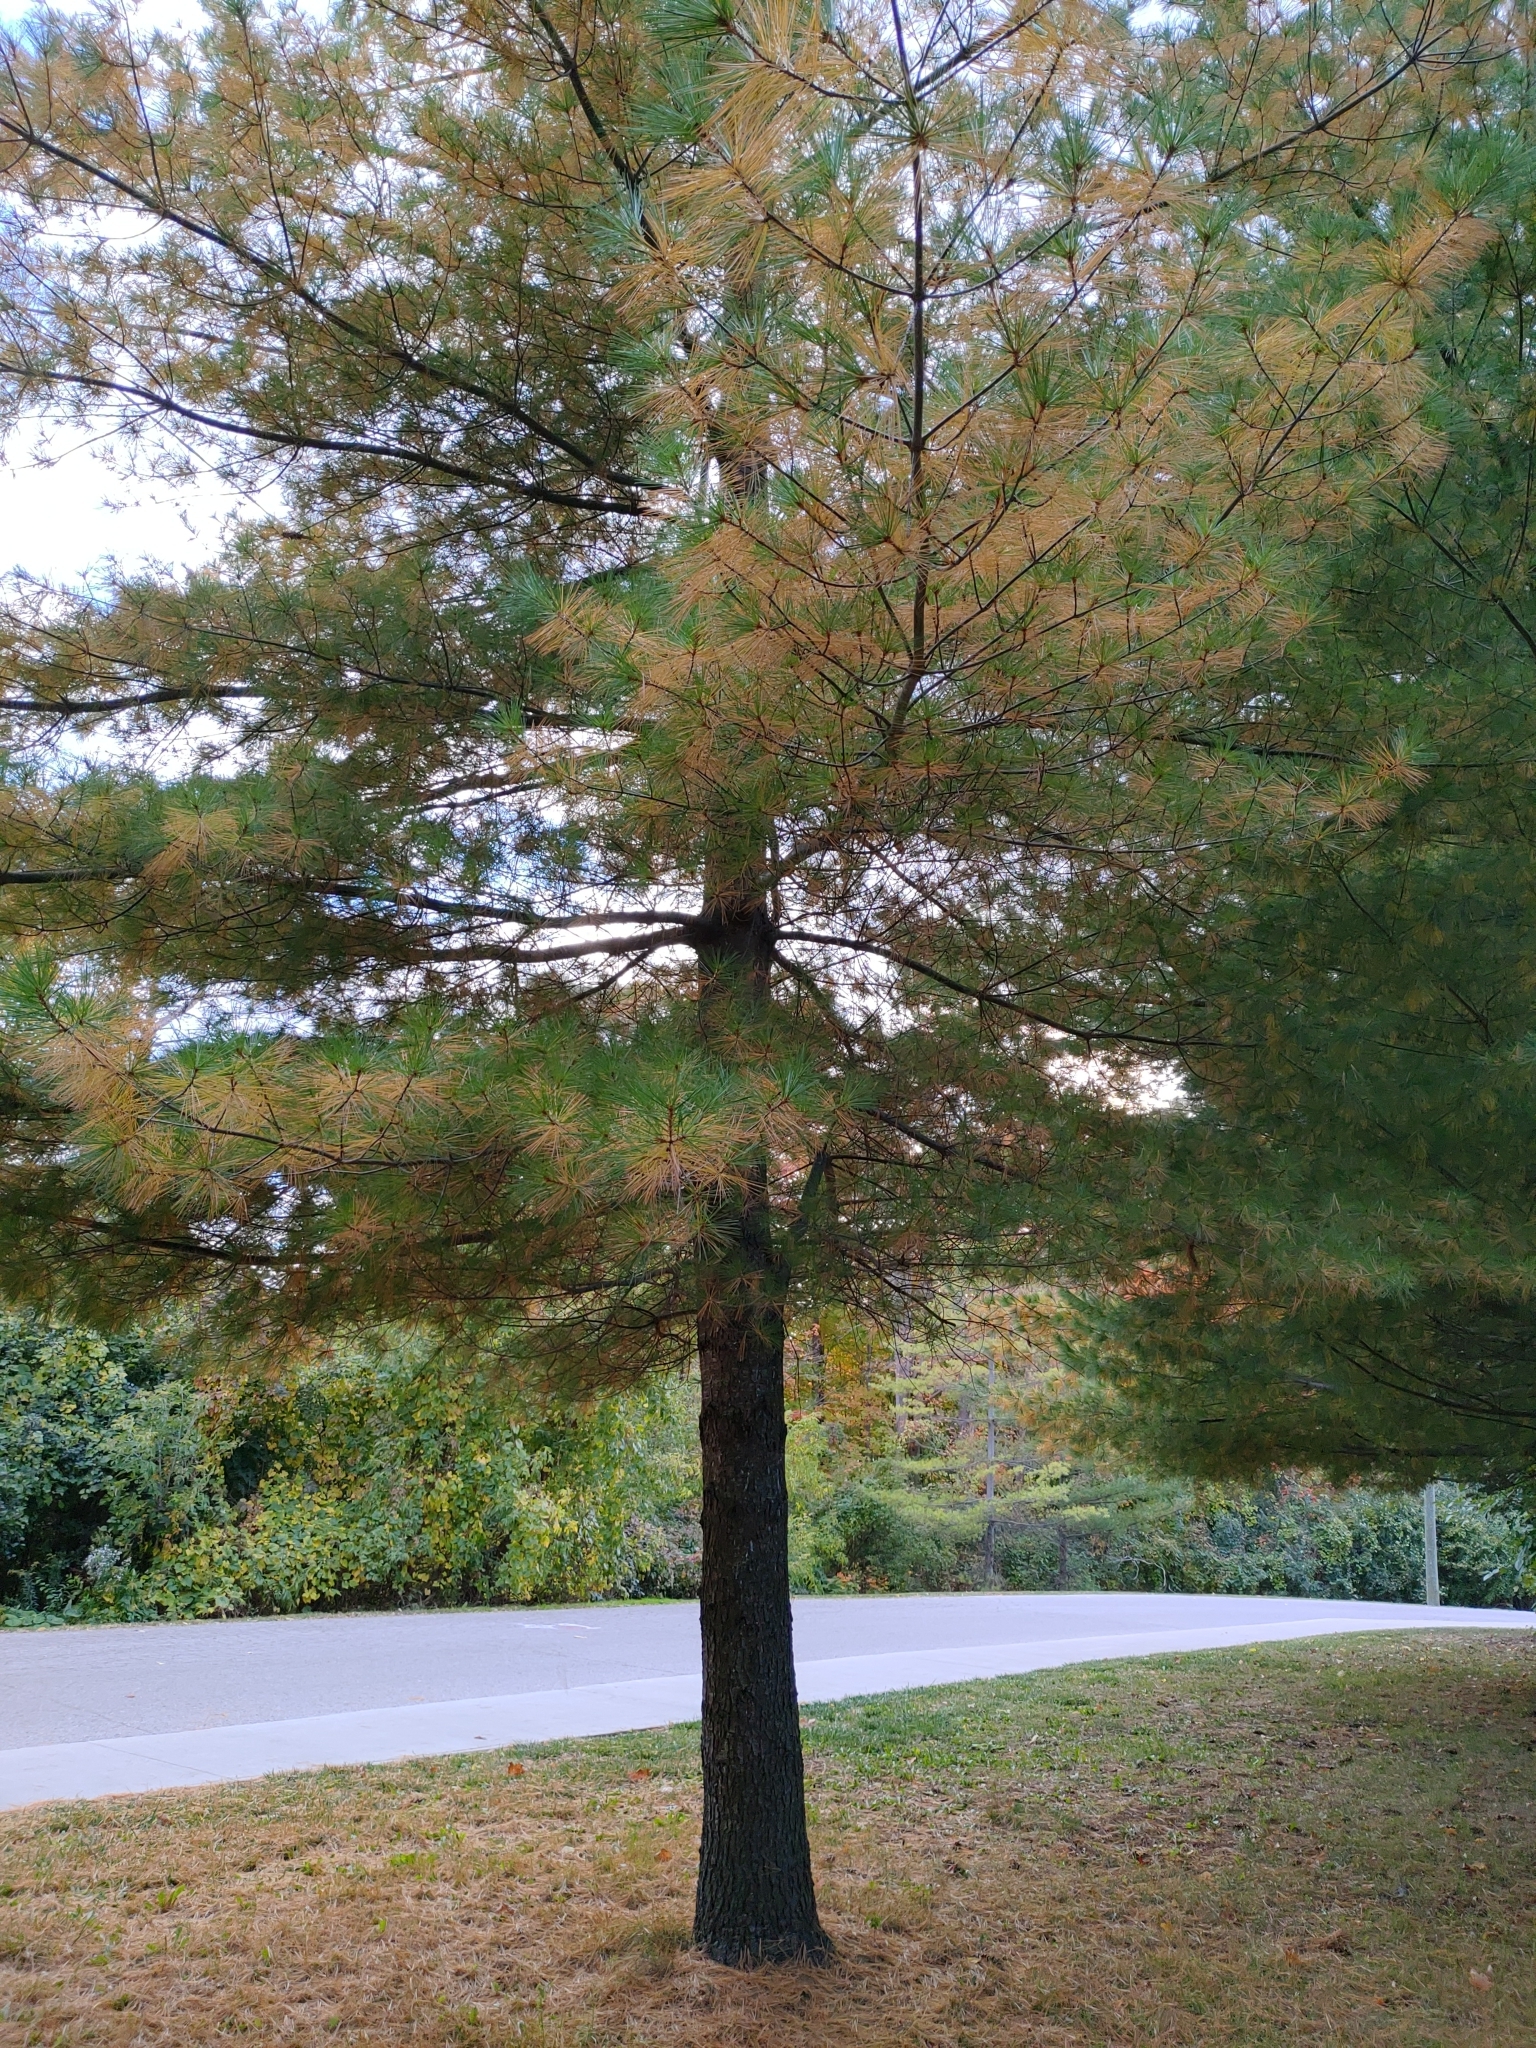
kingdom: Plantae
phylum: Tracheophyta
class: Pinopsida
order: Pinales
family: Pinaceae
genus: Pinus
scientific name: Pinus strobus
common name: Weymouth pine
